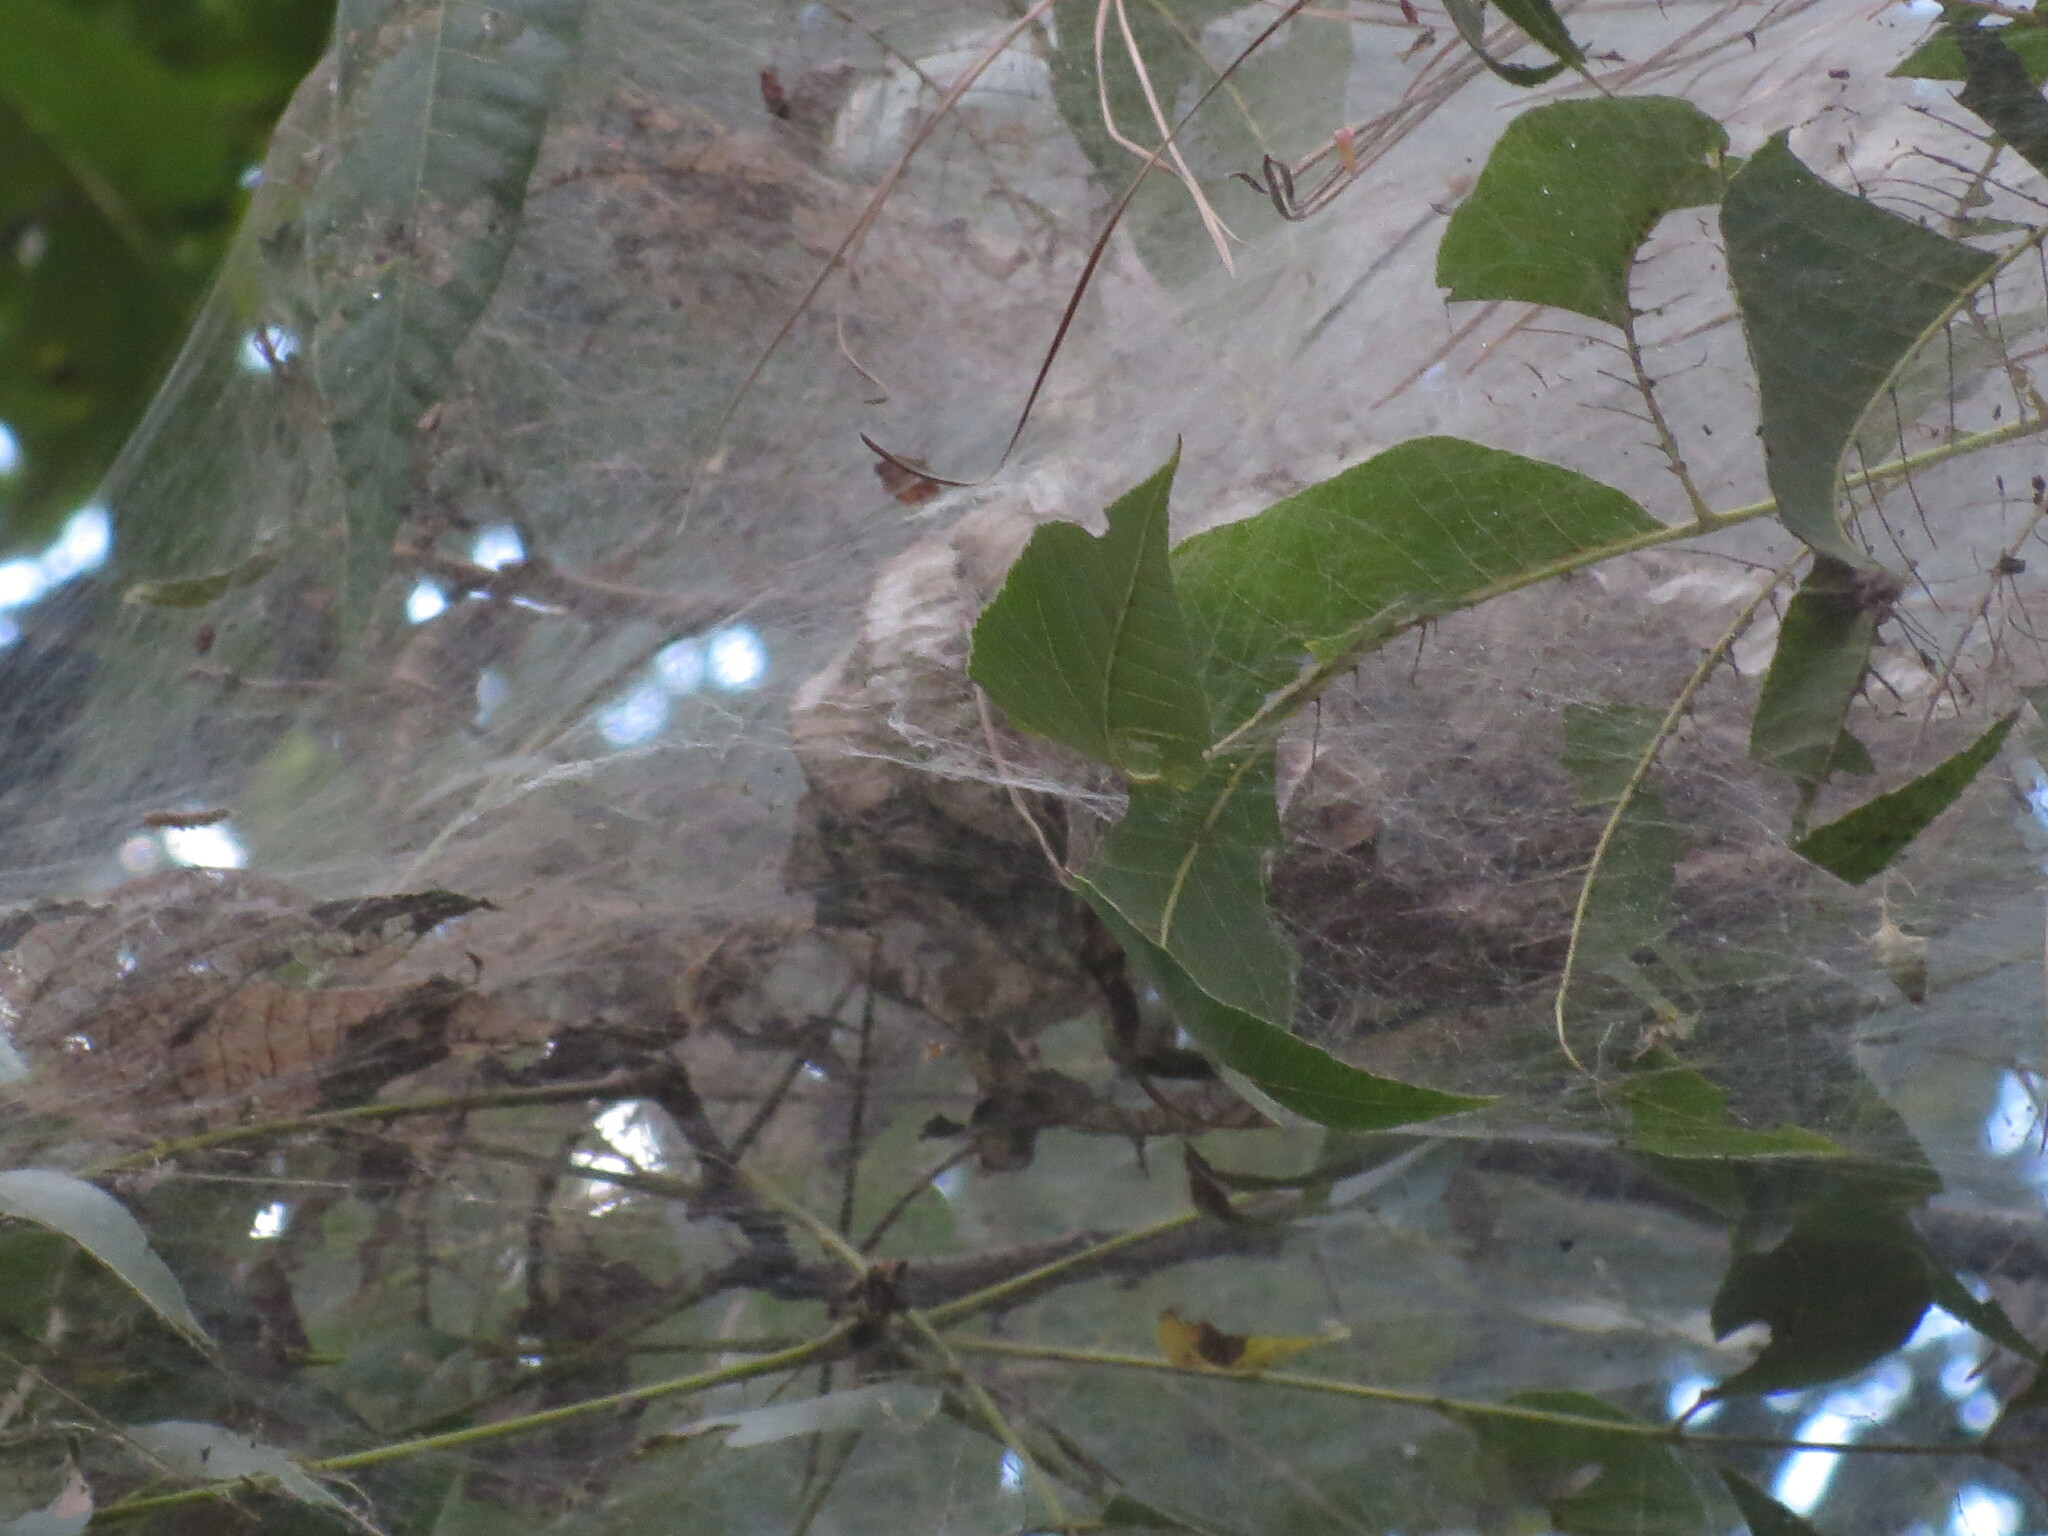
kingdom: Animalia
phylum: Arthropoda
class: Insecta
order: Lepidoptera
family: Erebidae
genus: Hyphantria
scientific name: Hyphantria cunea
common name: American white moth
